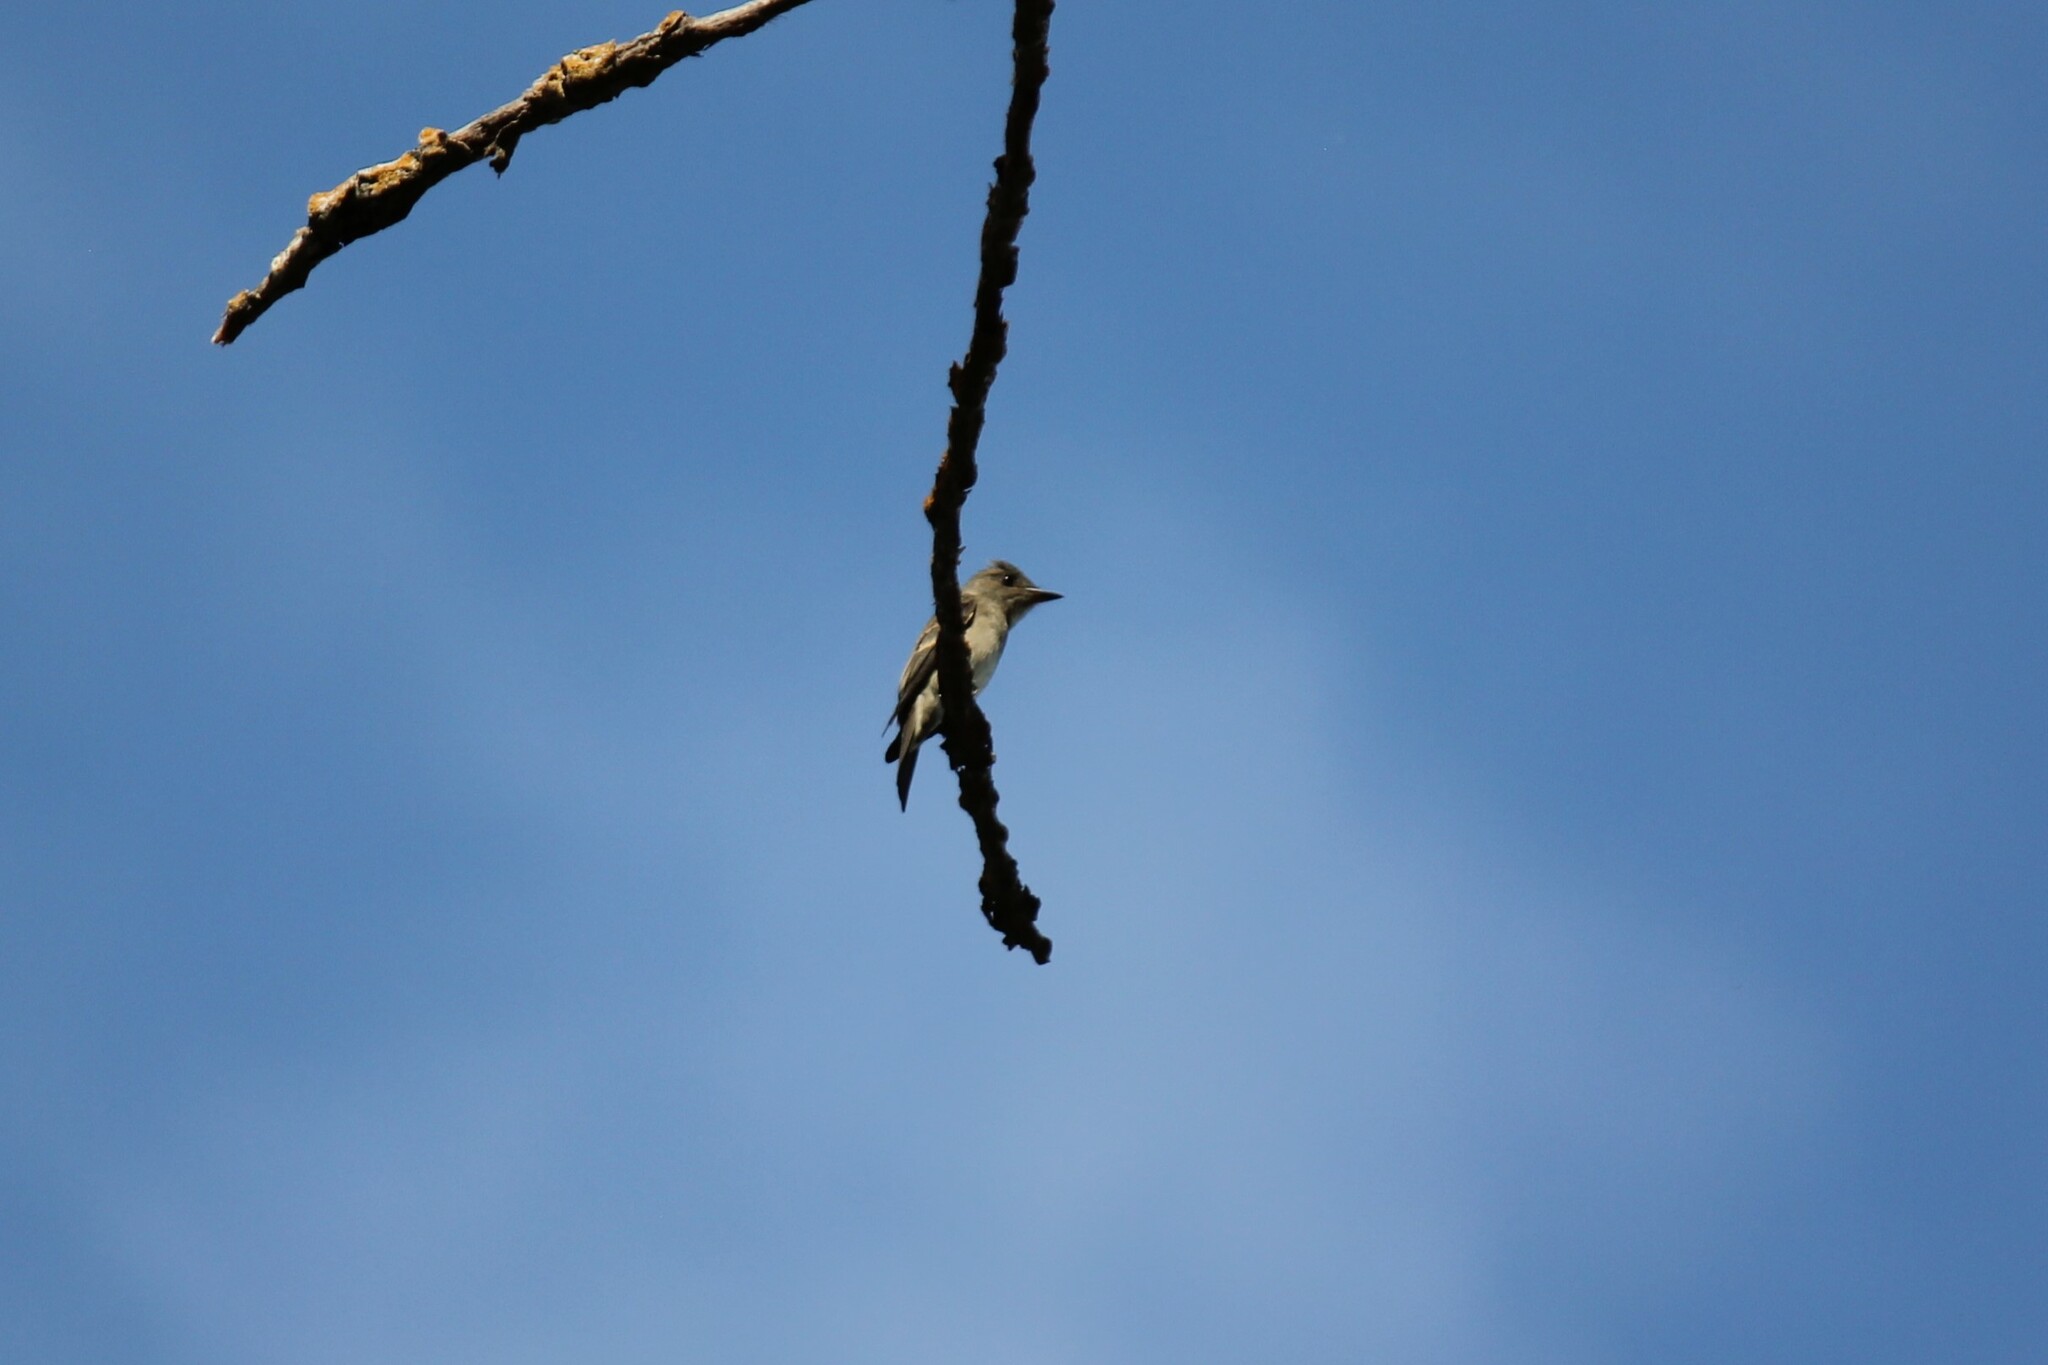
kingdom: Animalia
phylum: Chordata
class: Aves
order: Passeriformes
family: Tyrannidae
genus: Contopus
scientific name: Contopus sordidulus
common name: Western wood-pewee
